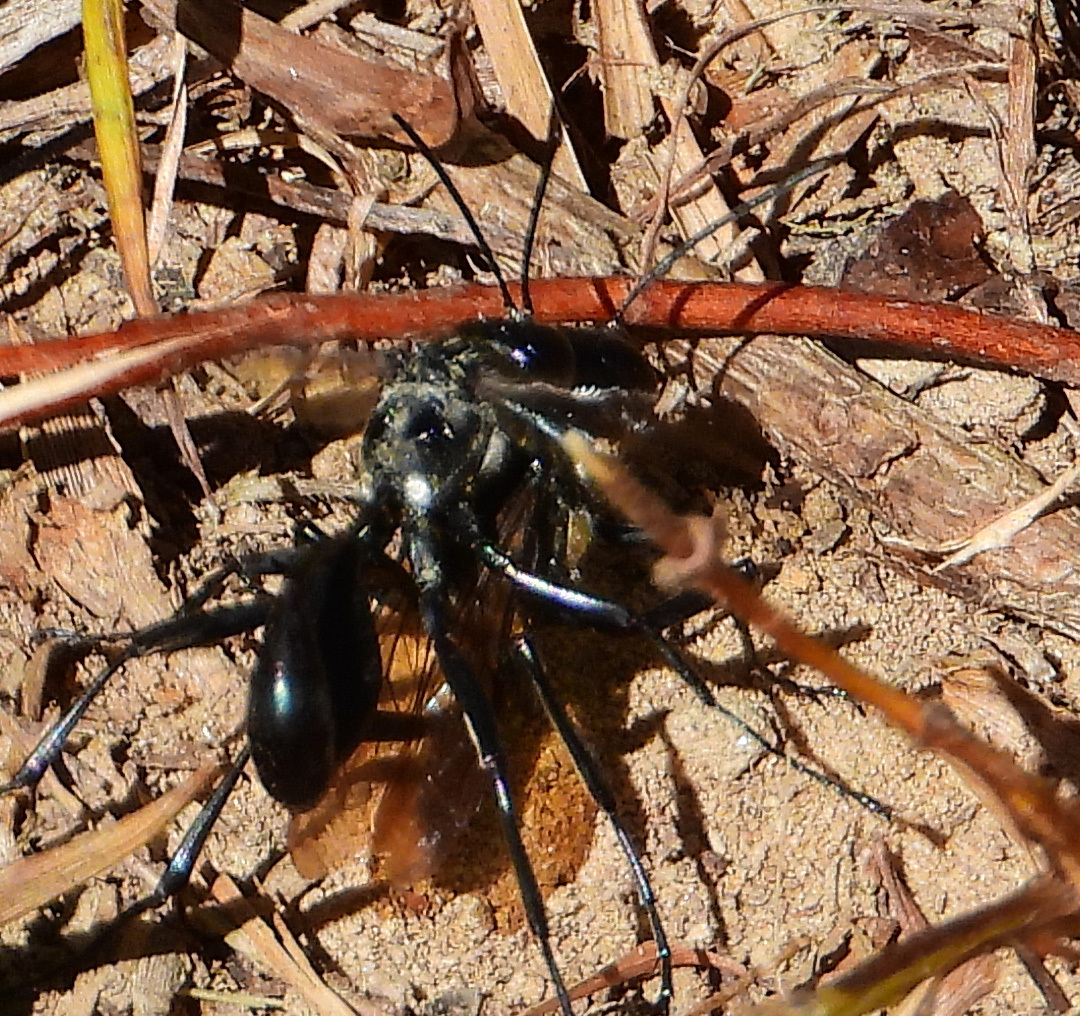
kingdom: Animalia
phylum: Arthropoda
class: Insecta
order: Hymenoptera
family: Sphecidae
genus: Eremnophila
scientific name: Eremnophila aureonotata
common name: Gold-marked thread-waisted wasp
